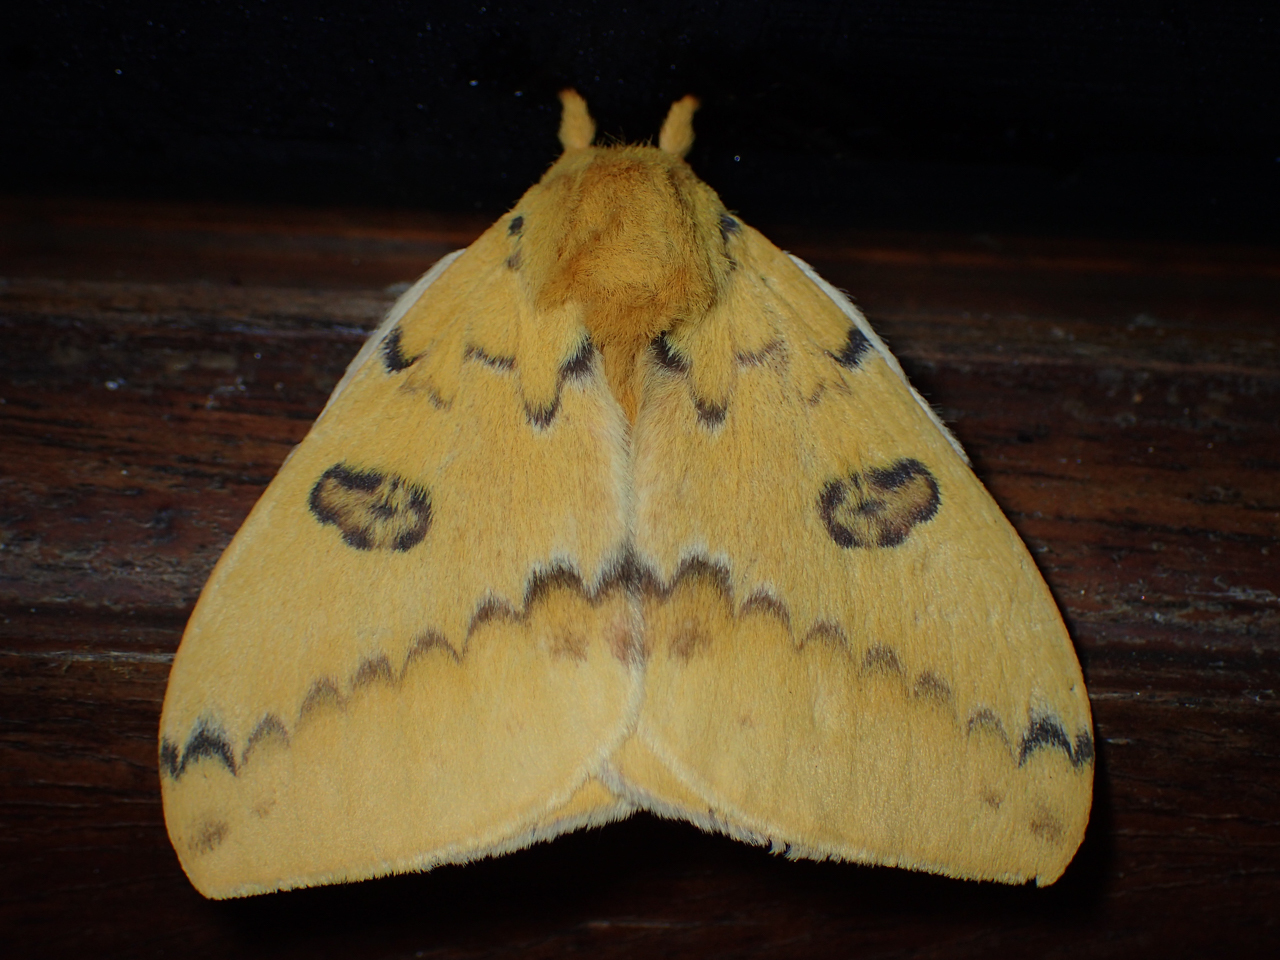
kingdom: Animalia
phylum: Arthropoda
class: Insecta
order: Lepidoptera
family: Saturniidae
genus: Automeris
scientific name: Automeris io
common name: Io moth
